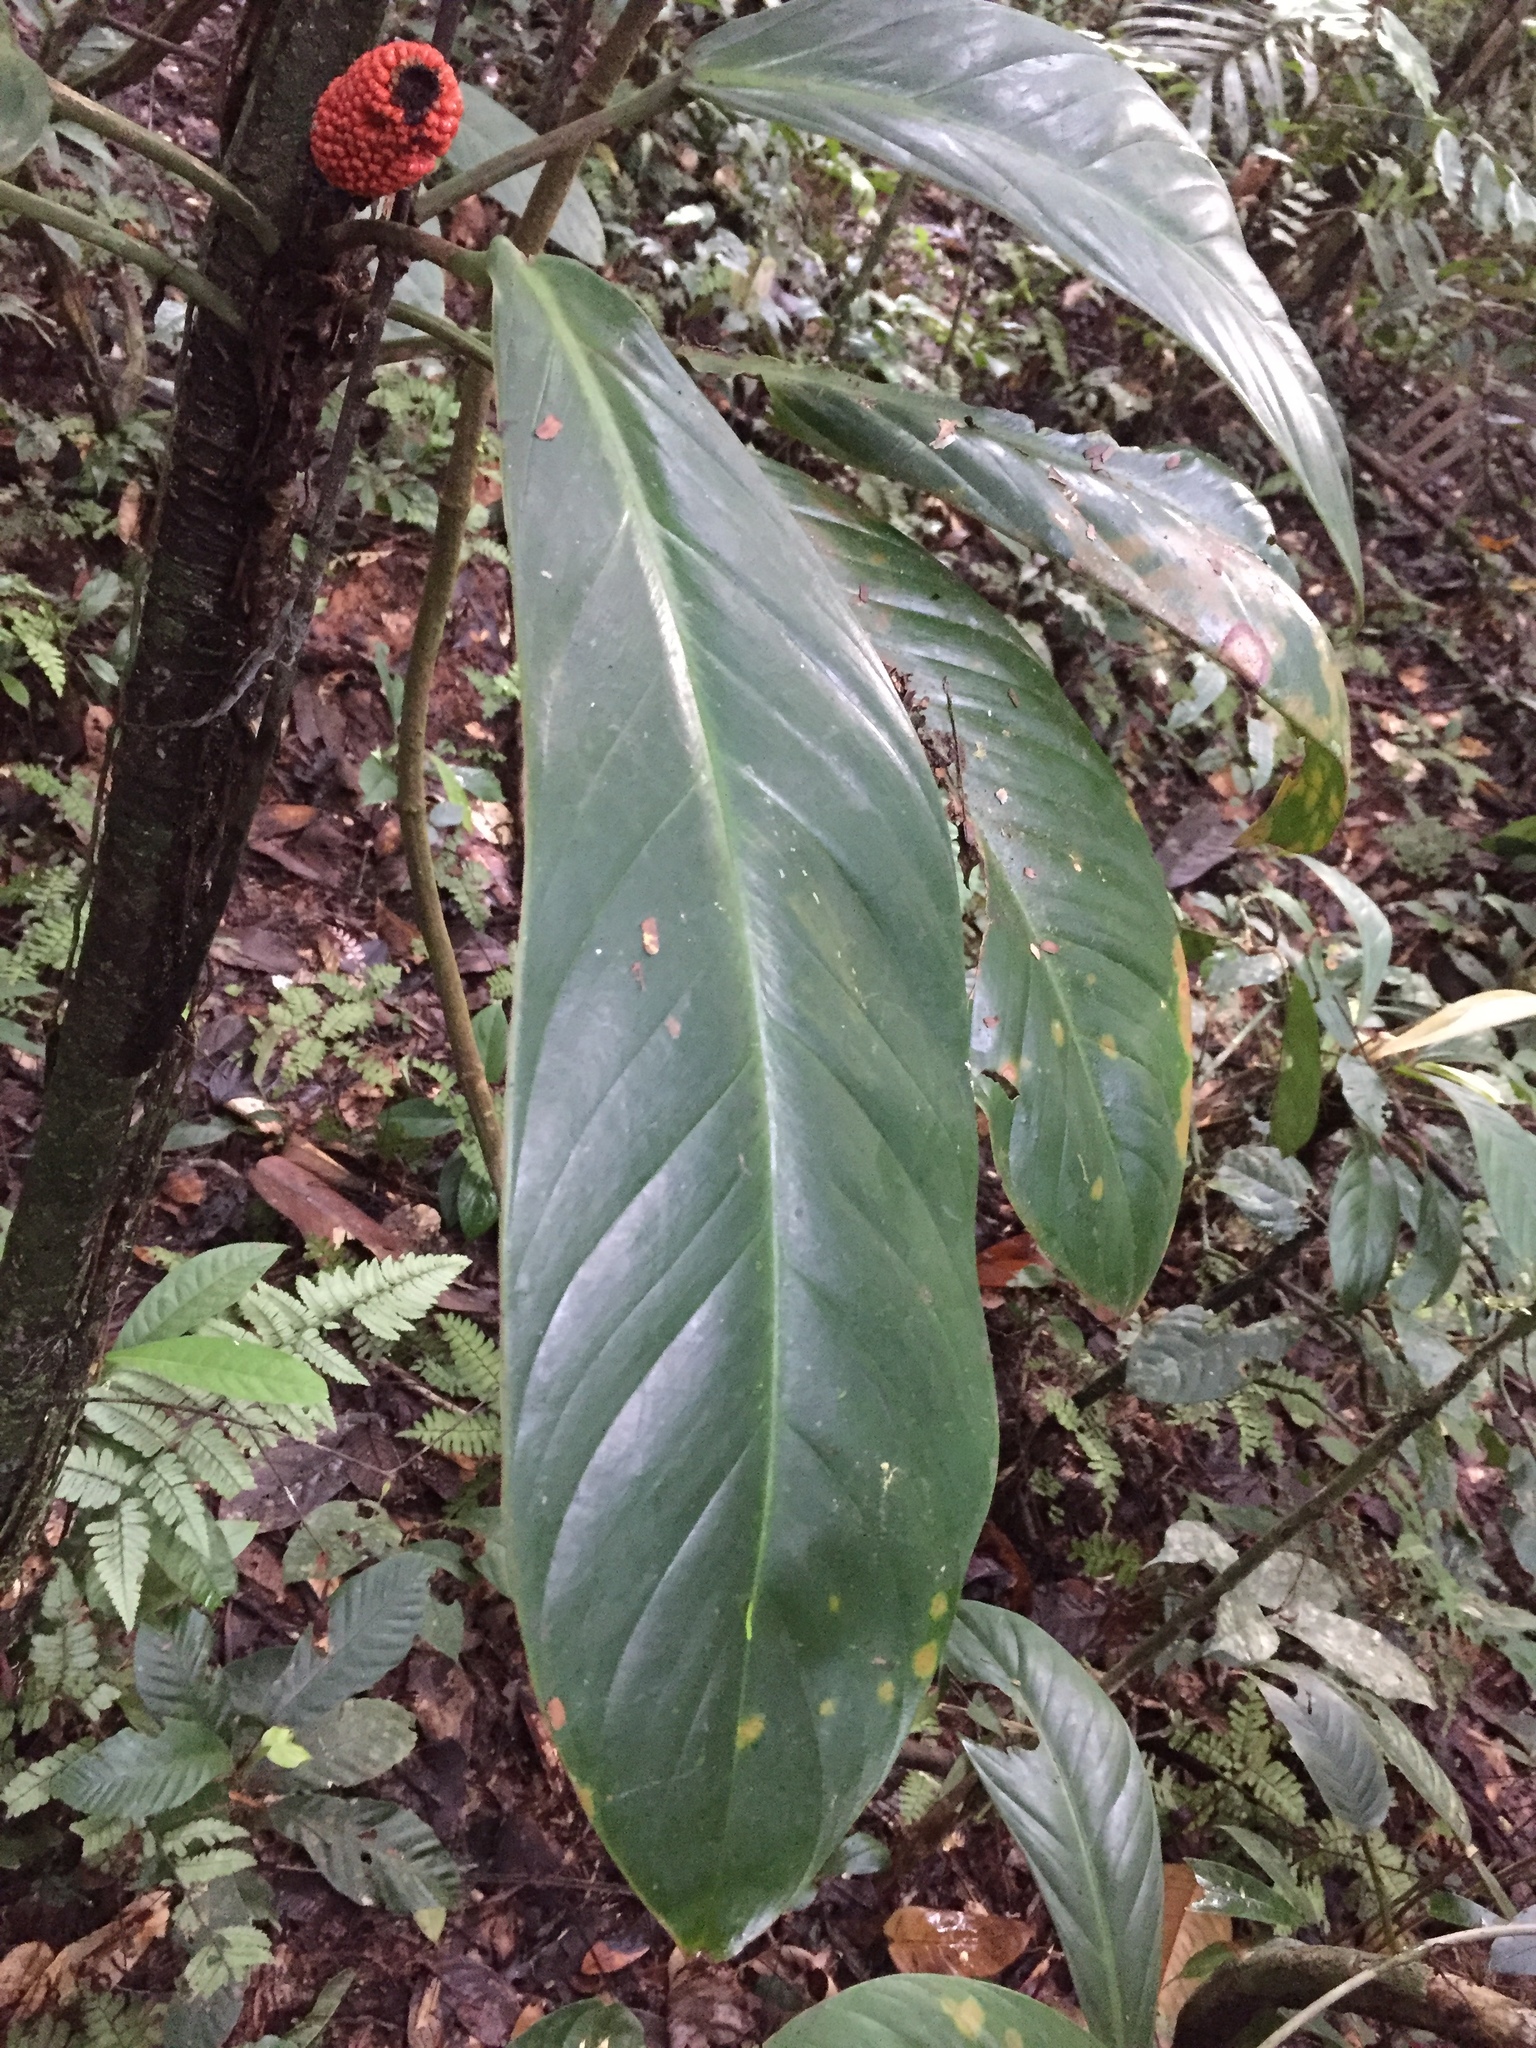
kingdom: Plantae
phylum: Tracheophyta
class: Liliopsida
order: Alismatales
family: Araceae
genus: Philodendron
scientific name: Philodendron wittianum
